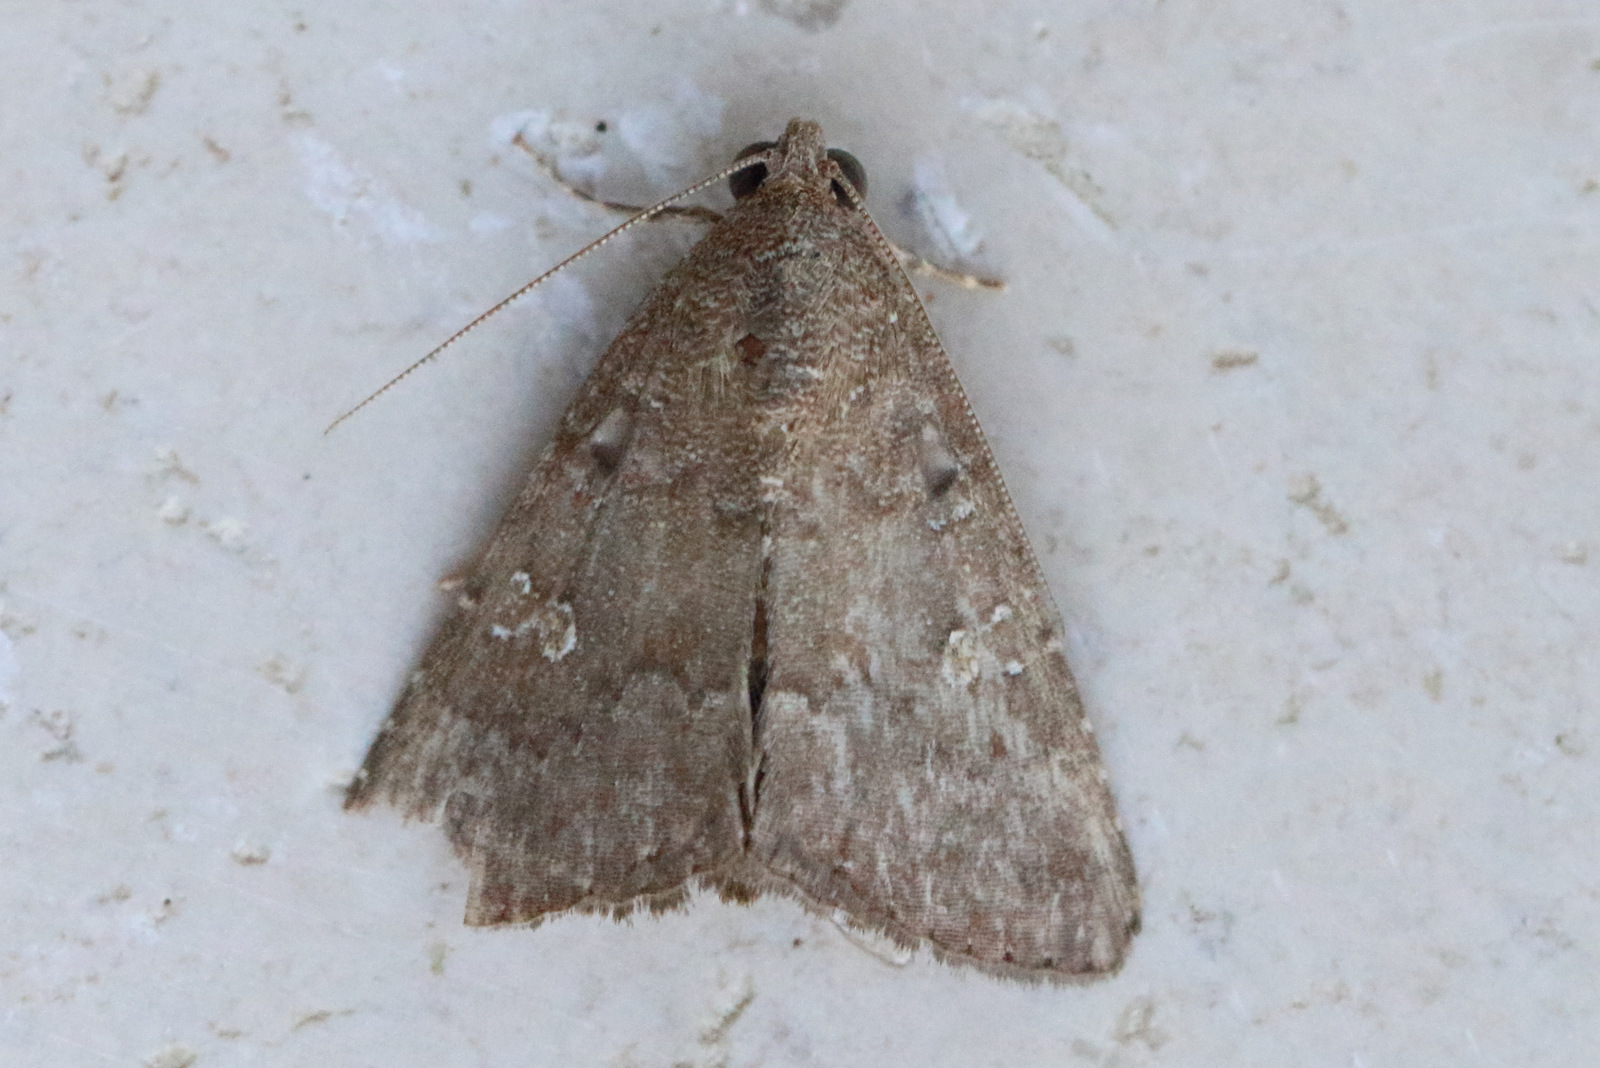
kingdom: Animalia
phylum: Arthropoda
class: Insecta
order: Lepidoptera
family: Noctuidae
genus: Amyna
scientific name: Amyna natalis
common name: Iiima moth
